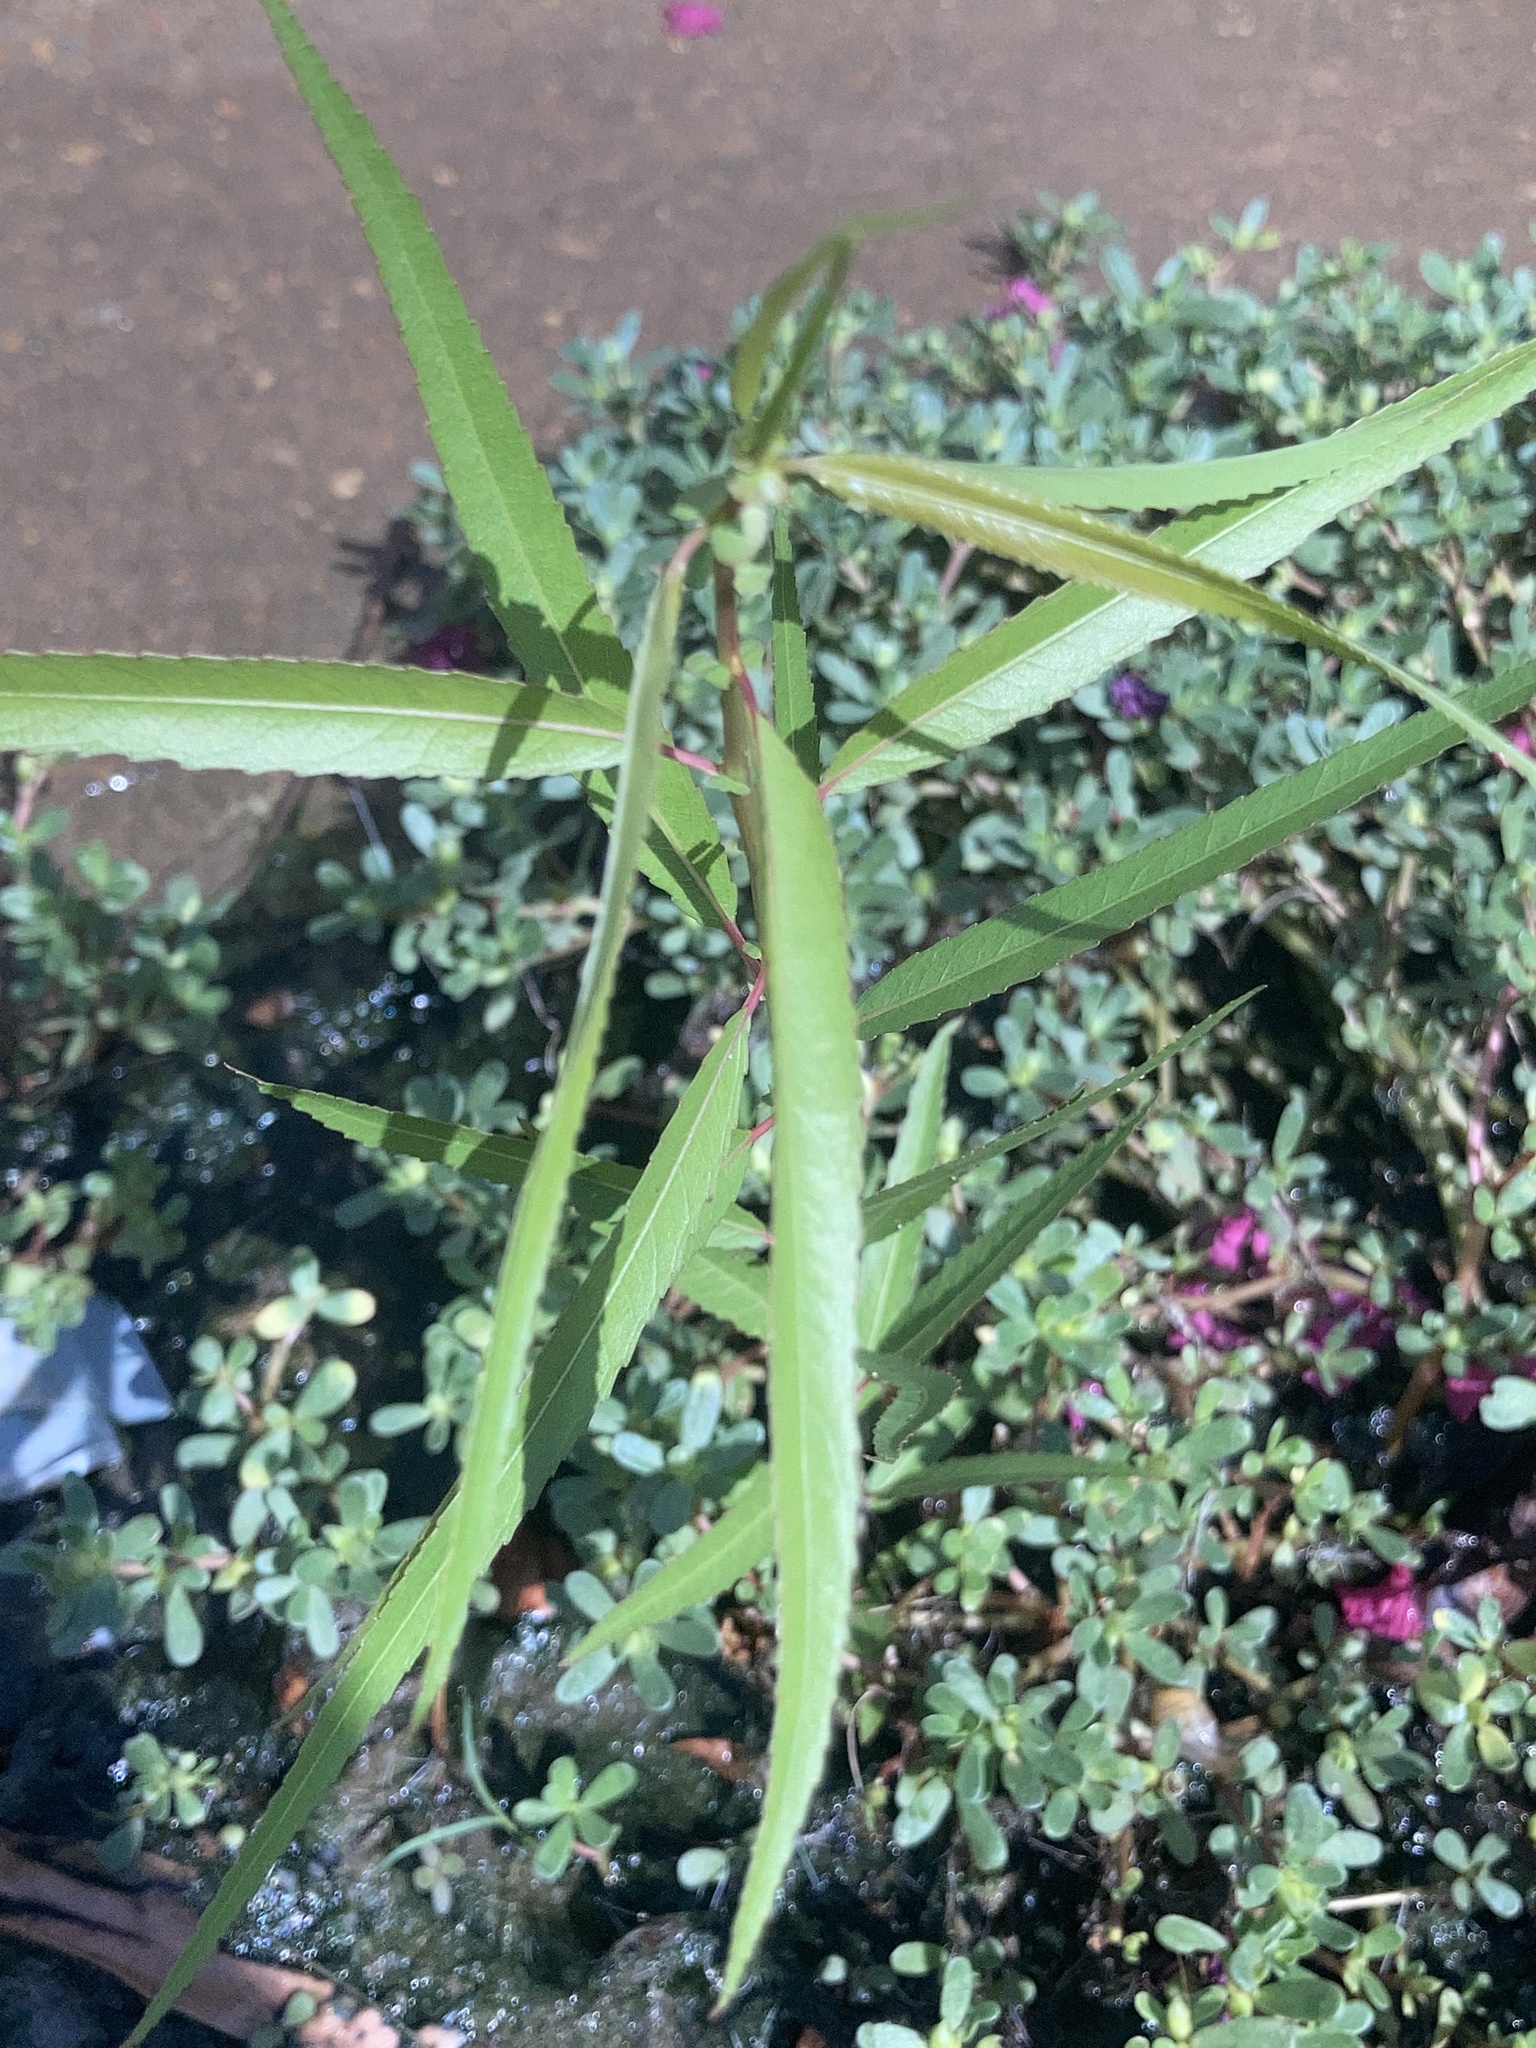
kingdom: Plantae
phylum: Tracheophyta
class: Magnoliopsida
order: Saxifragales
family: Haloragaceae
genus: Proserpinaca
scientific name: Proserpinaca palustris
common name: Marsh mermaidweed
